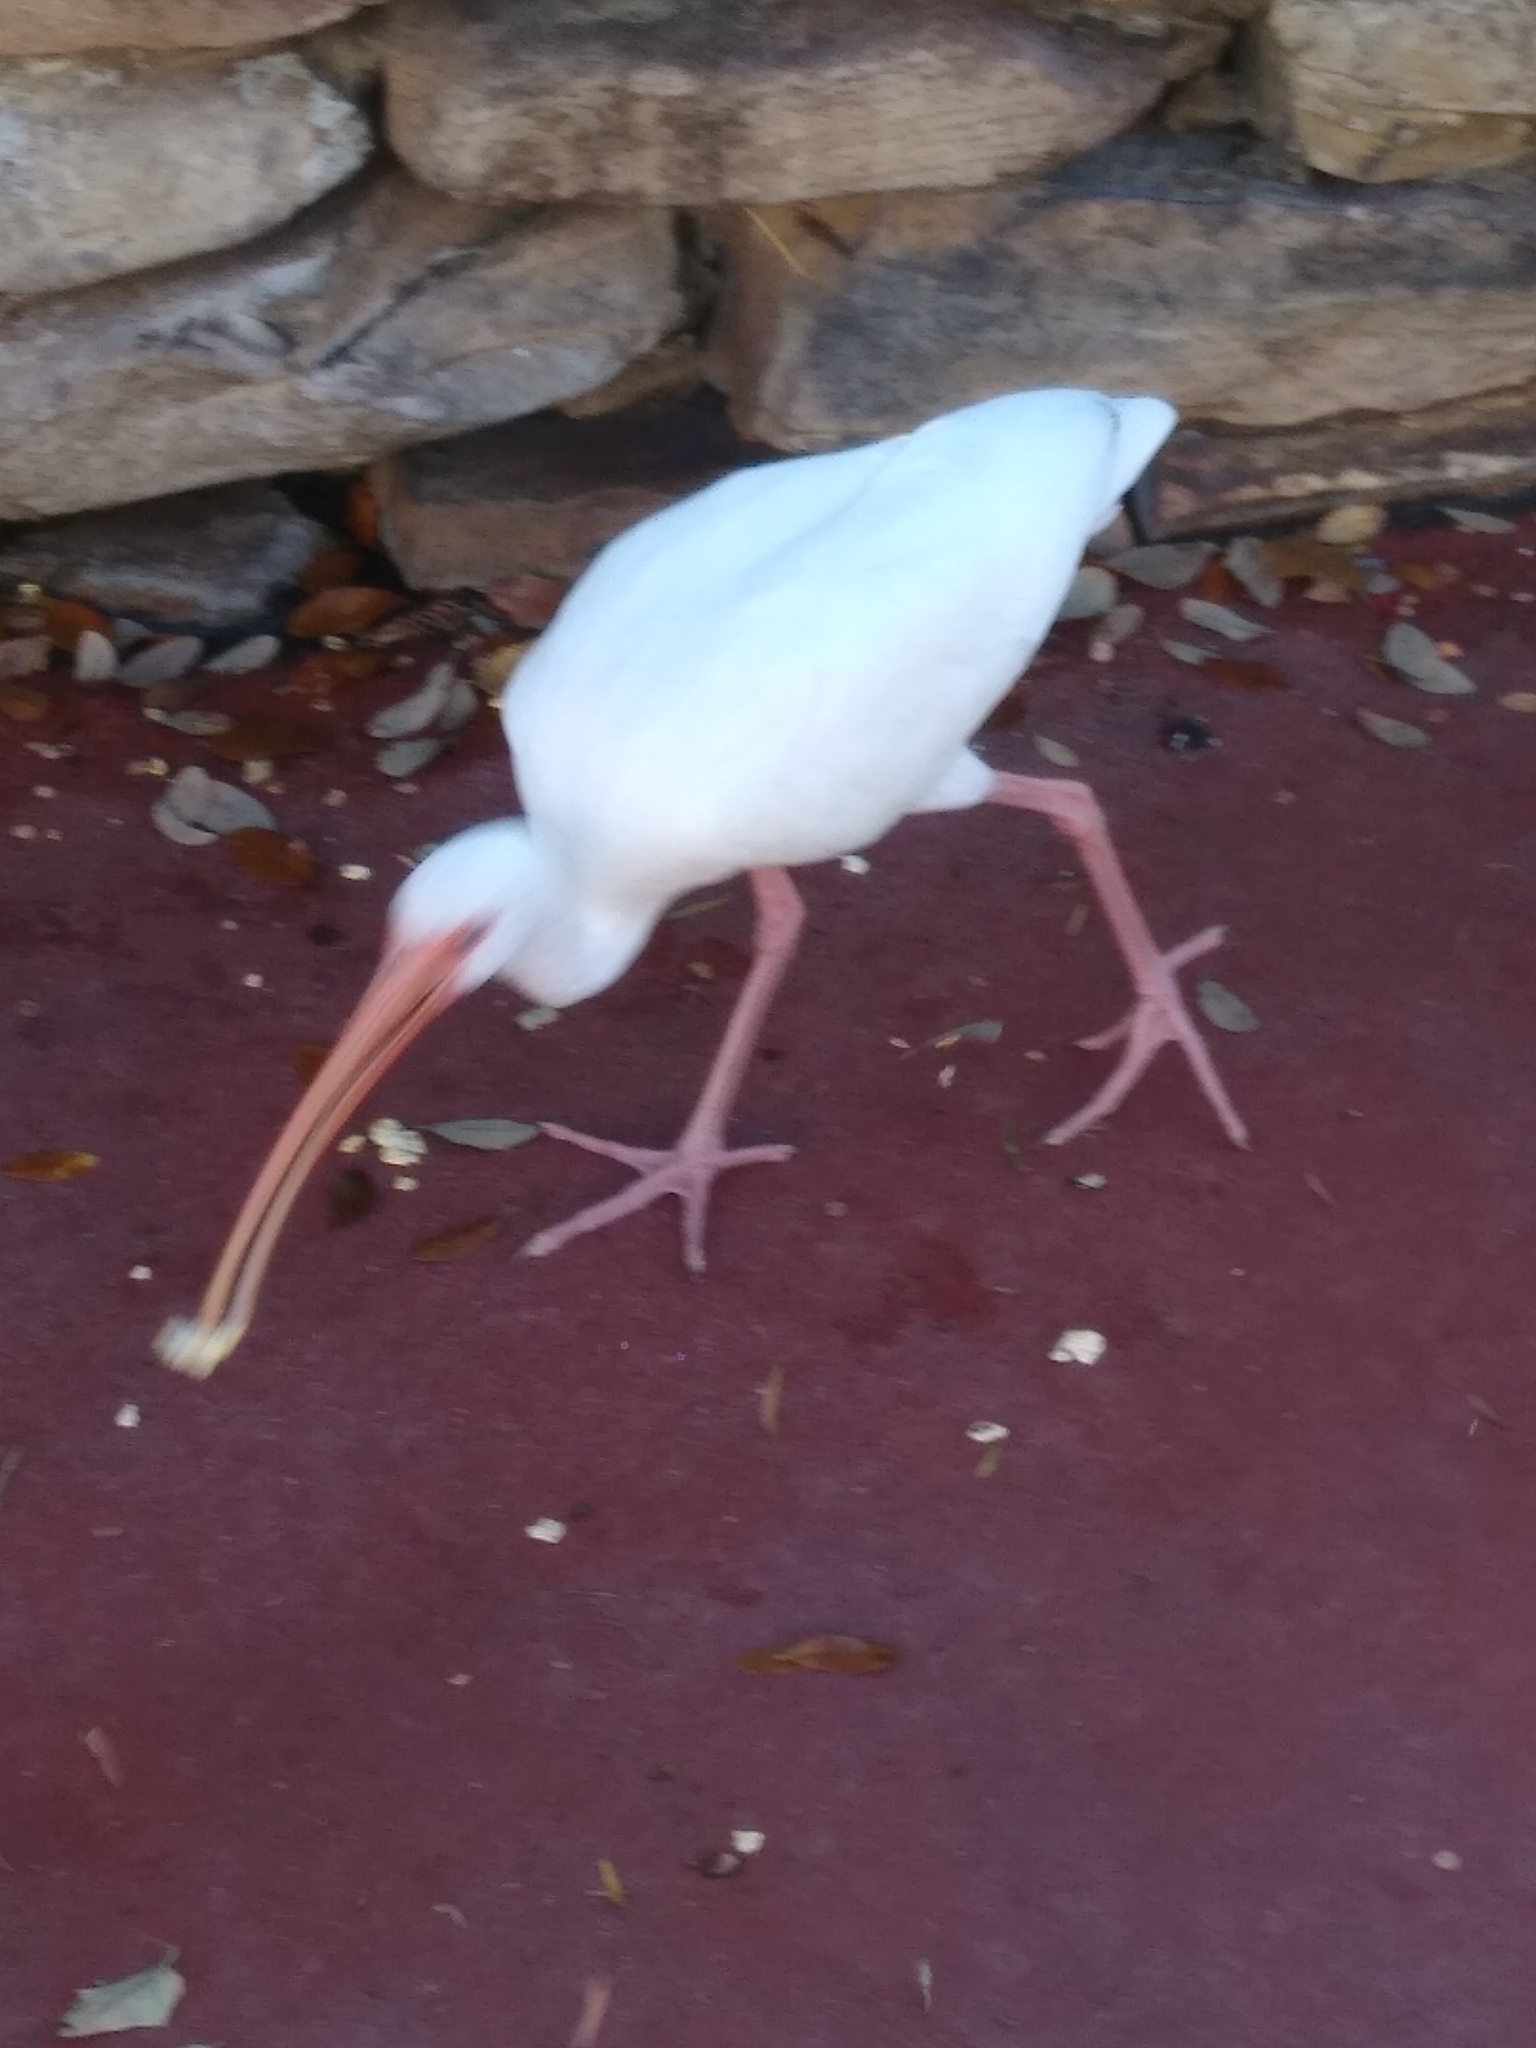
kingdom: Animalia
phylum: Chordata
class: Aves
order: Pelecaniformes
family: Threskiornithidae
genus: Eudocimus
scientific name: Eudocimus albus
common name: White ibis
